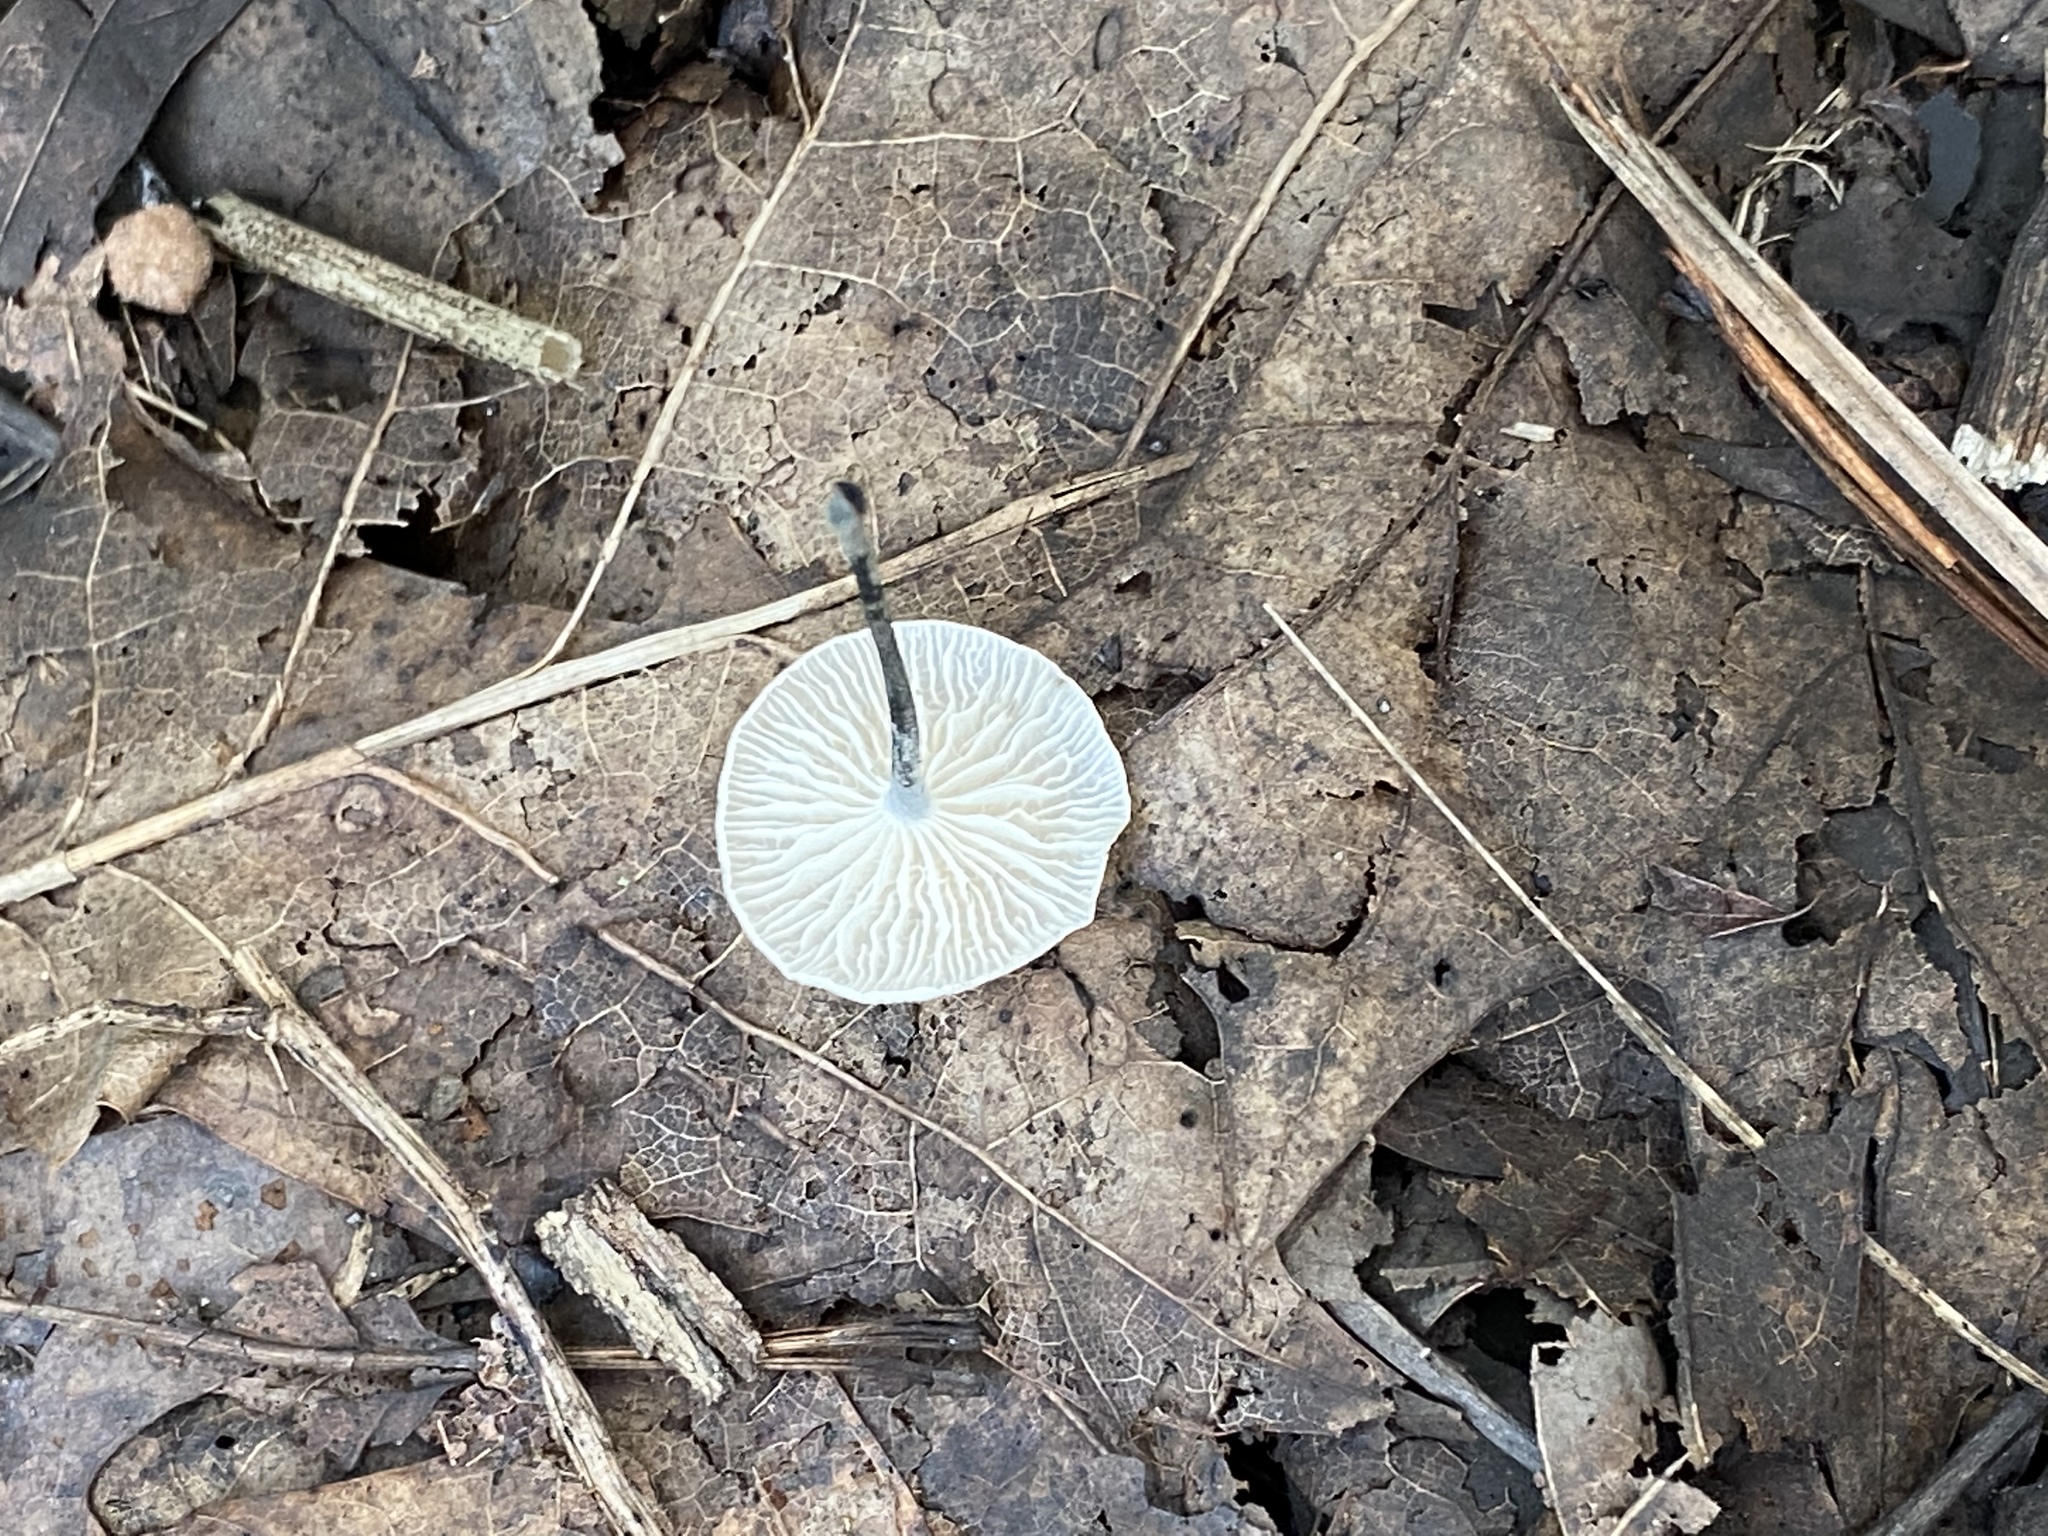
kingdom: Fungi
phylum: Basidiomycota
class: Agaricomycetes
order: Agaricales
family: Marasmiaceae
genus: Tetrapyrgos
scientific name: Tetrapyrgos nigripes
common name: Black-stalked marasmius
